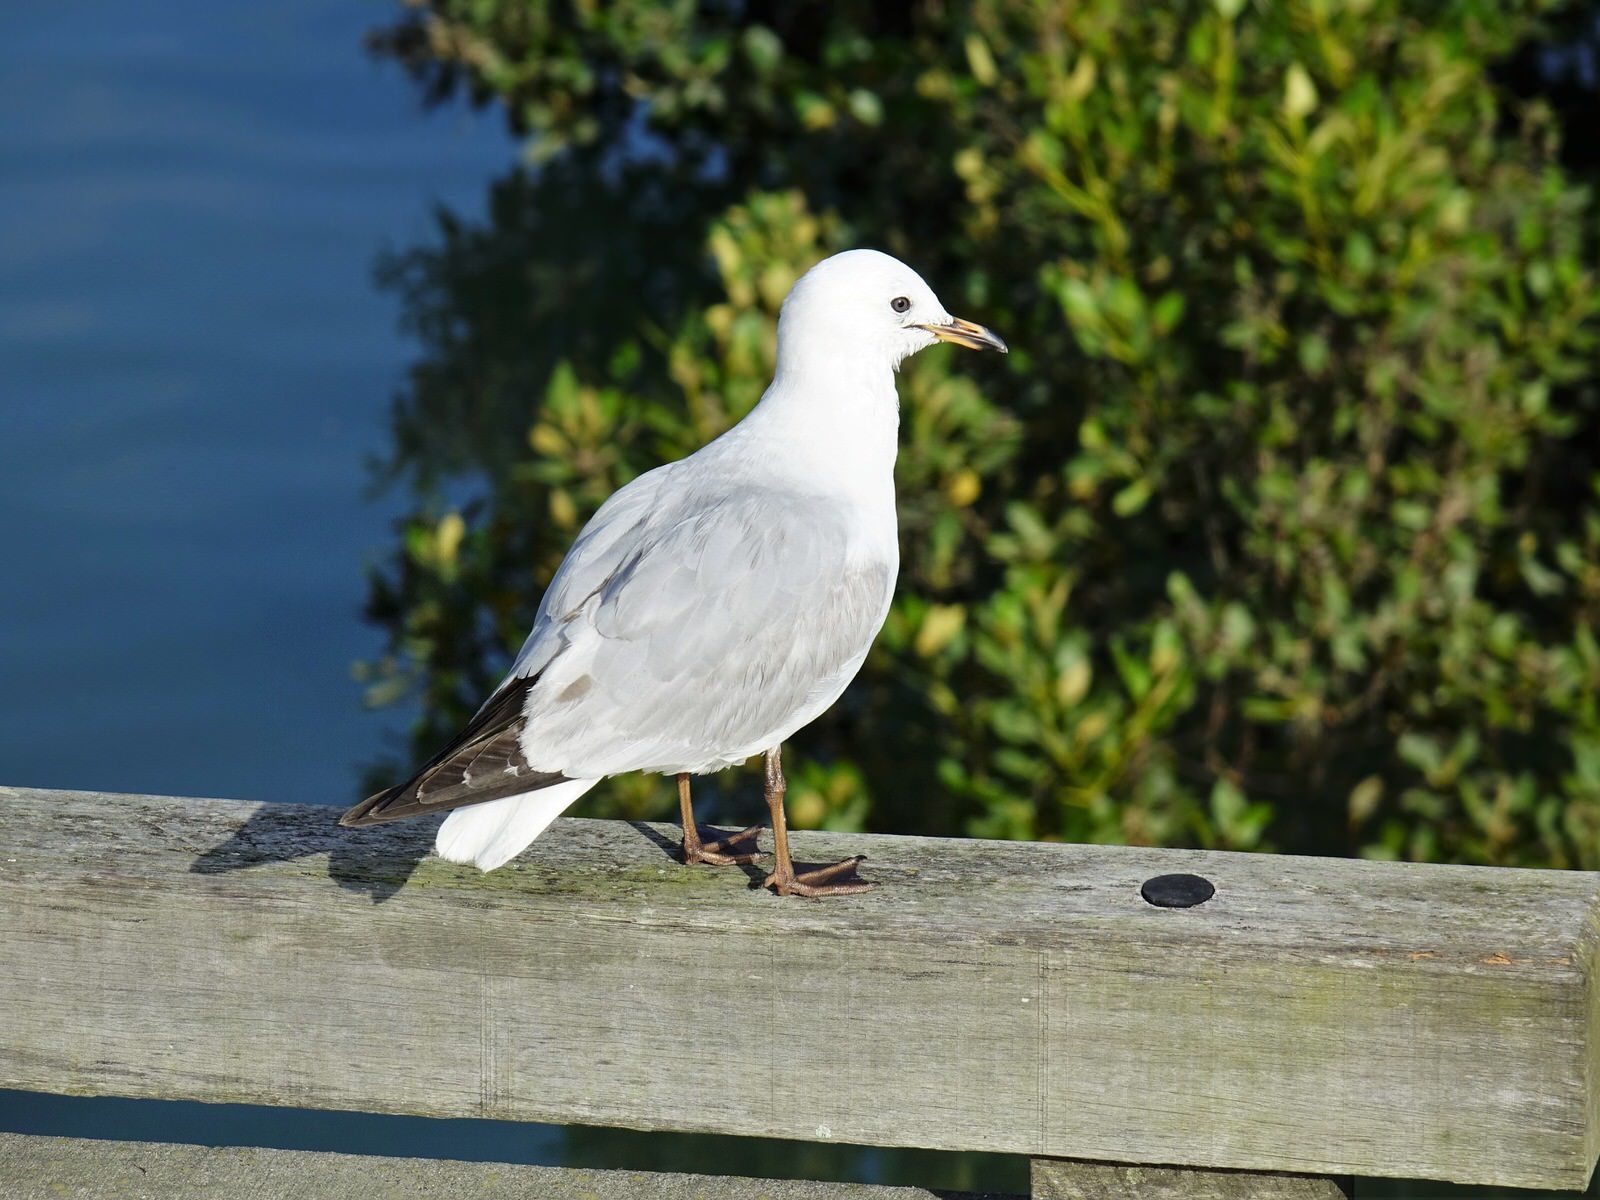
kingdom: Animalia
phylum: Chordata
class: Aves
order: Charadriiformes
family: Laridae
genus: Chroicocephalus
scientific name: Chroicocephalus novaehollandiae
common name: Silver gull
